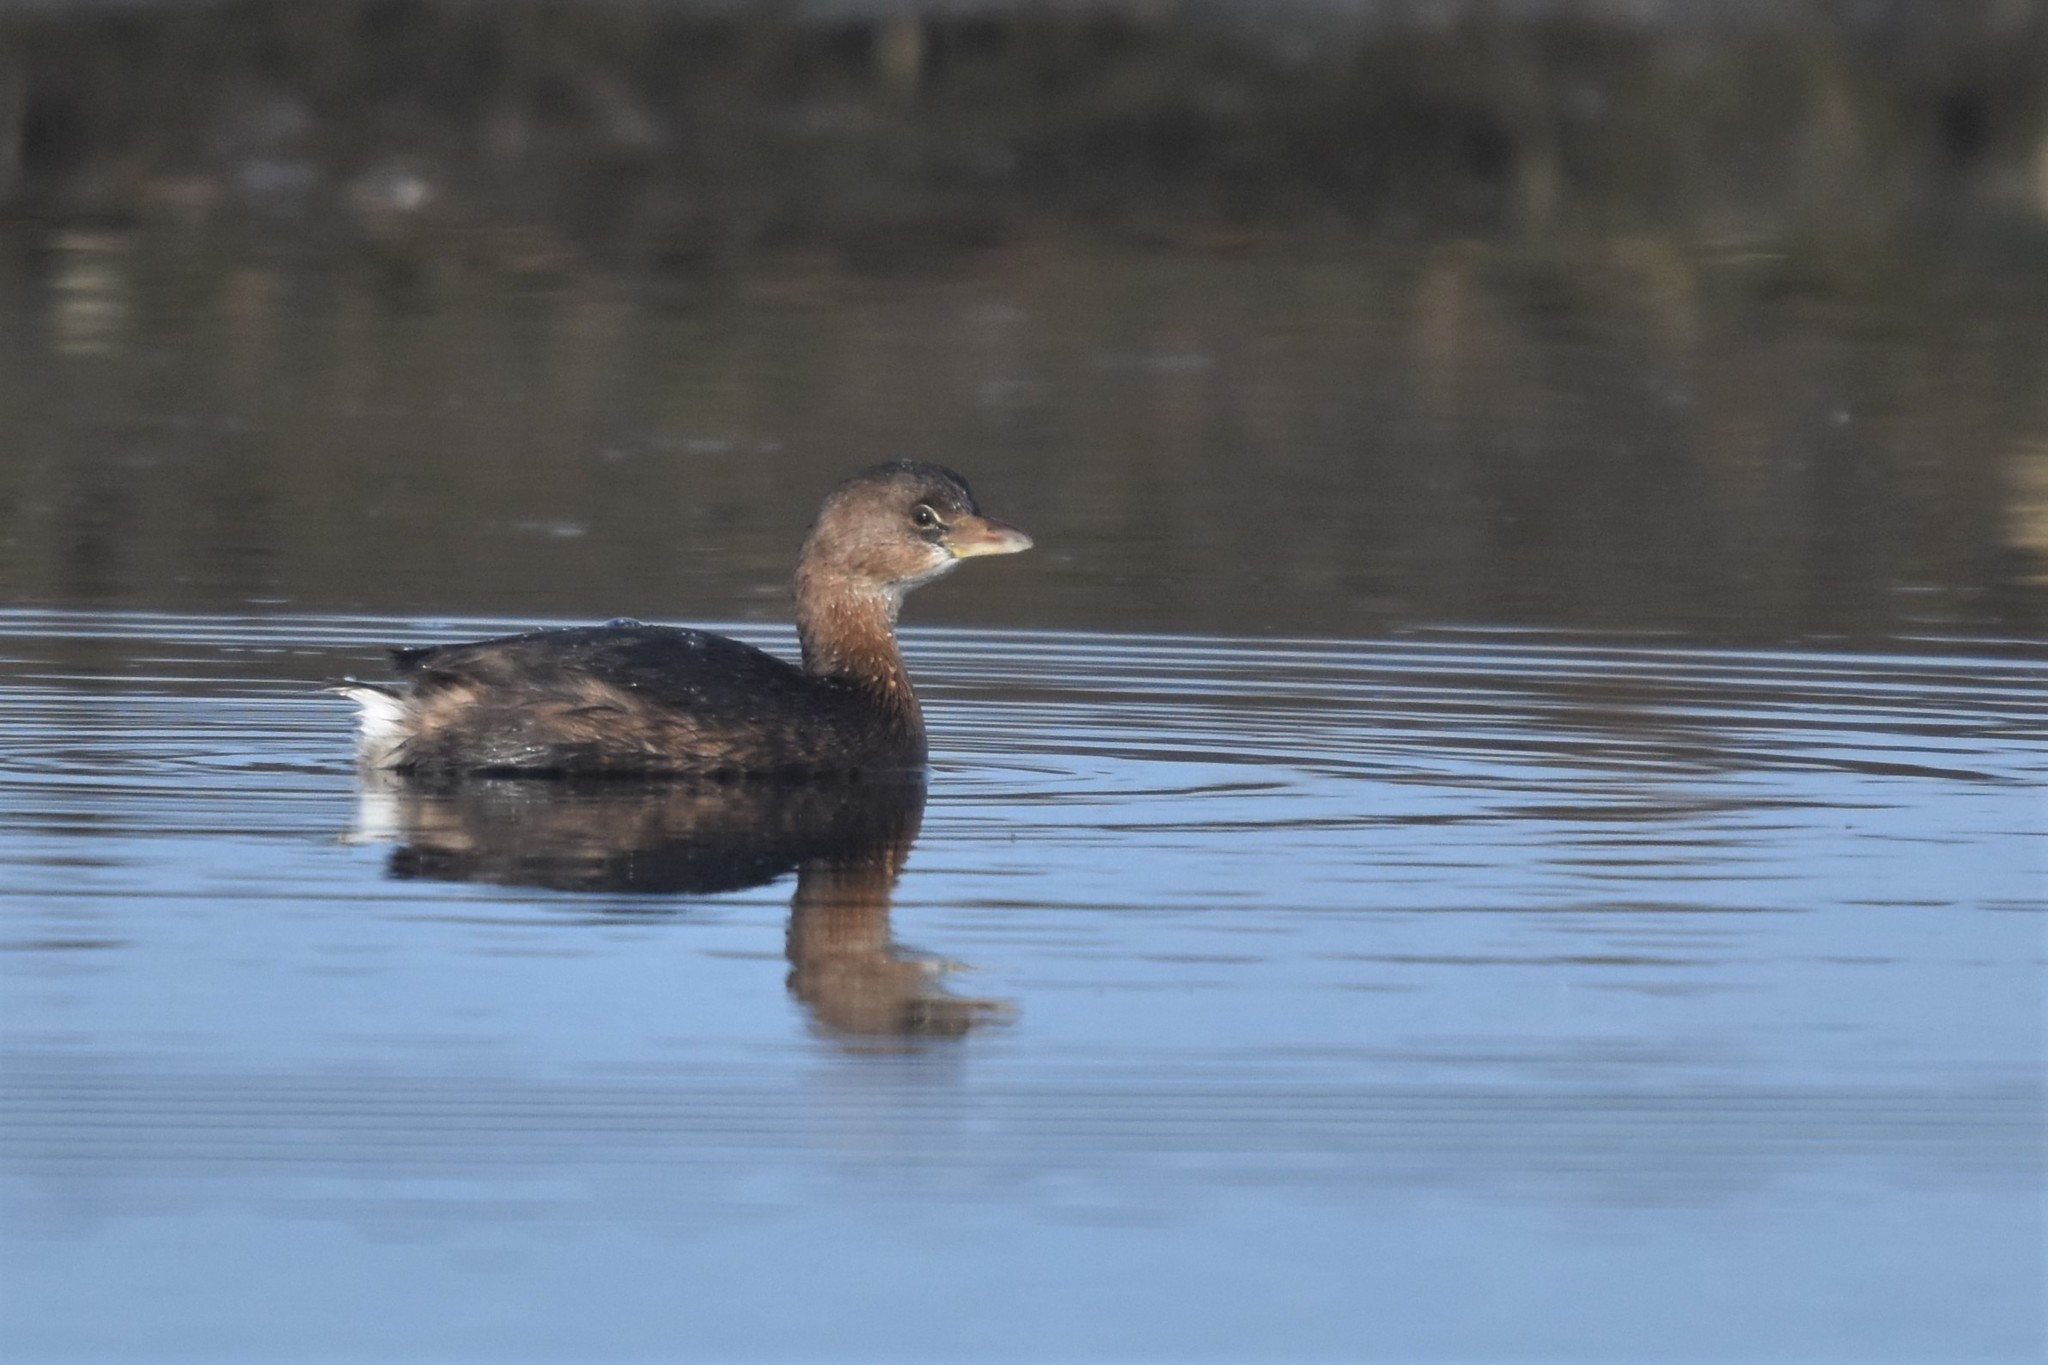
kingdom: Animalia
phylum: Chordata
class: Aves
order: Podicipediformes
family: Podicipedidae
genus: Podilymbus
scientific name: Podilymbus podiceps
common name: Pied-billed grebe
